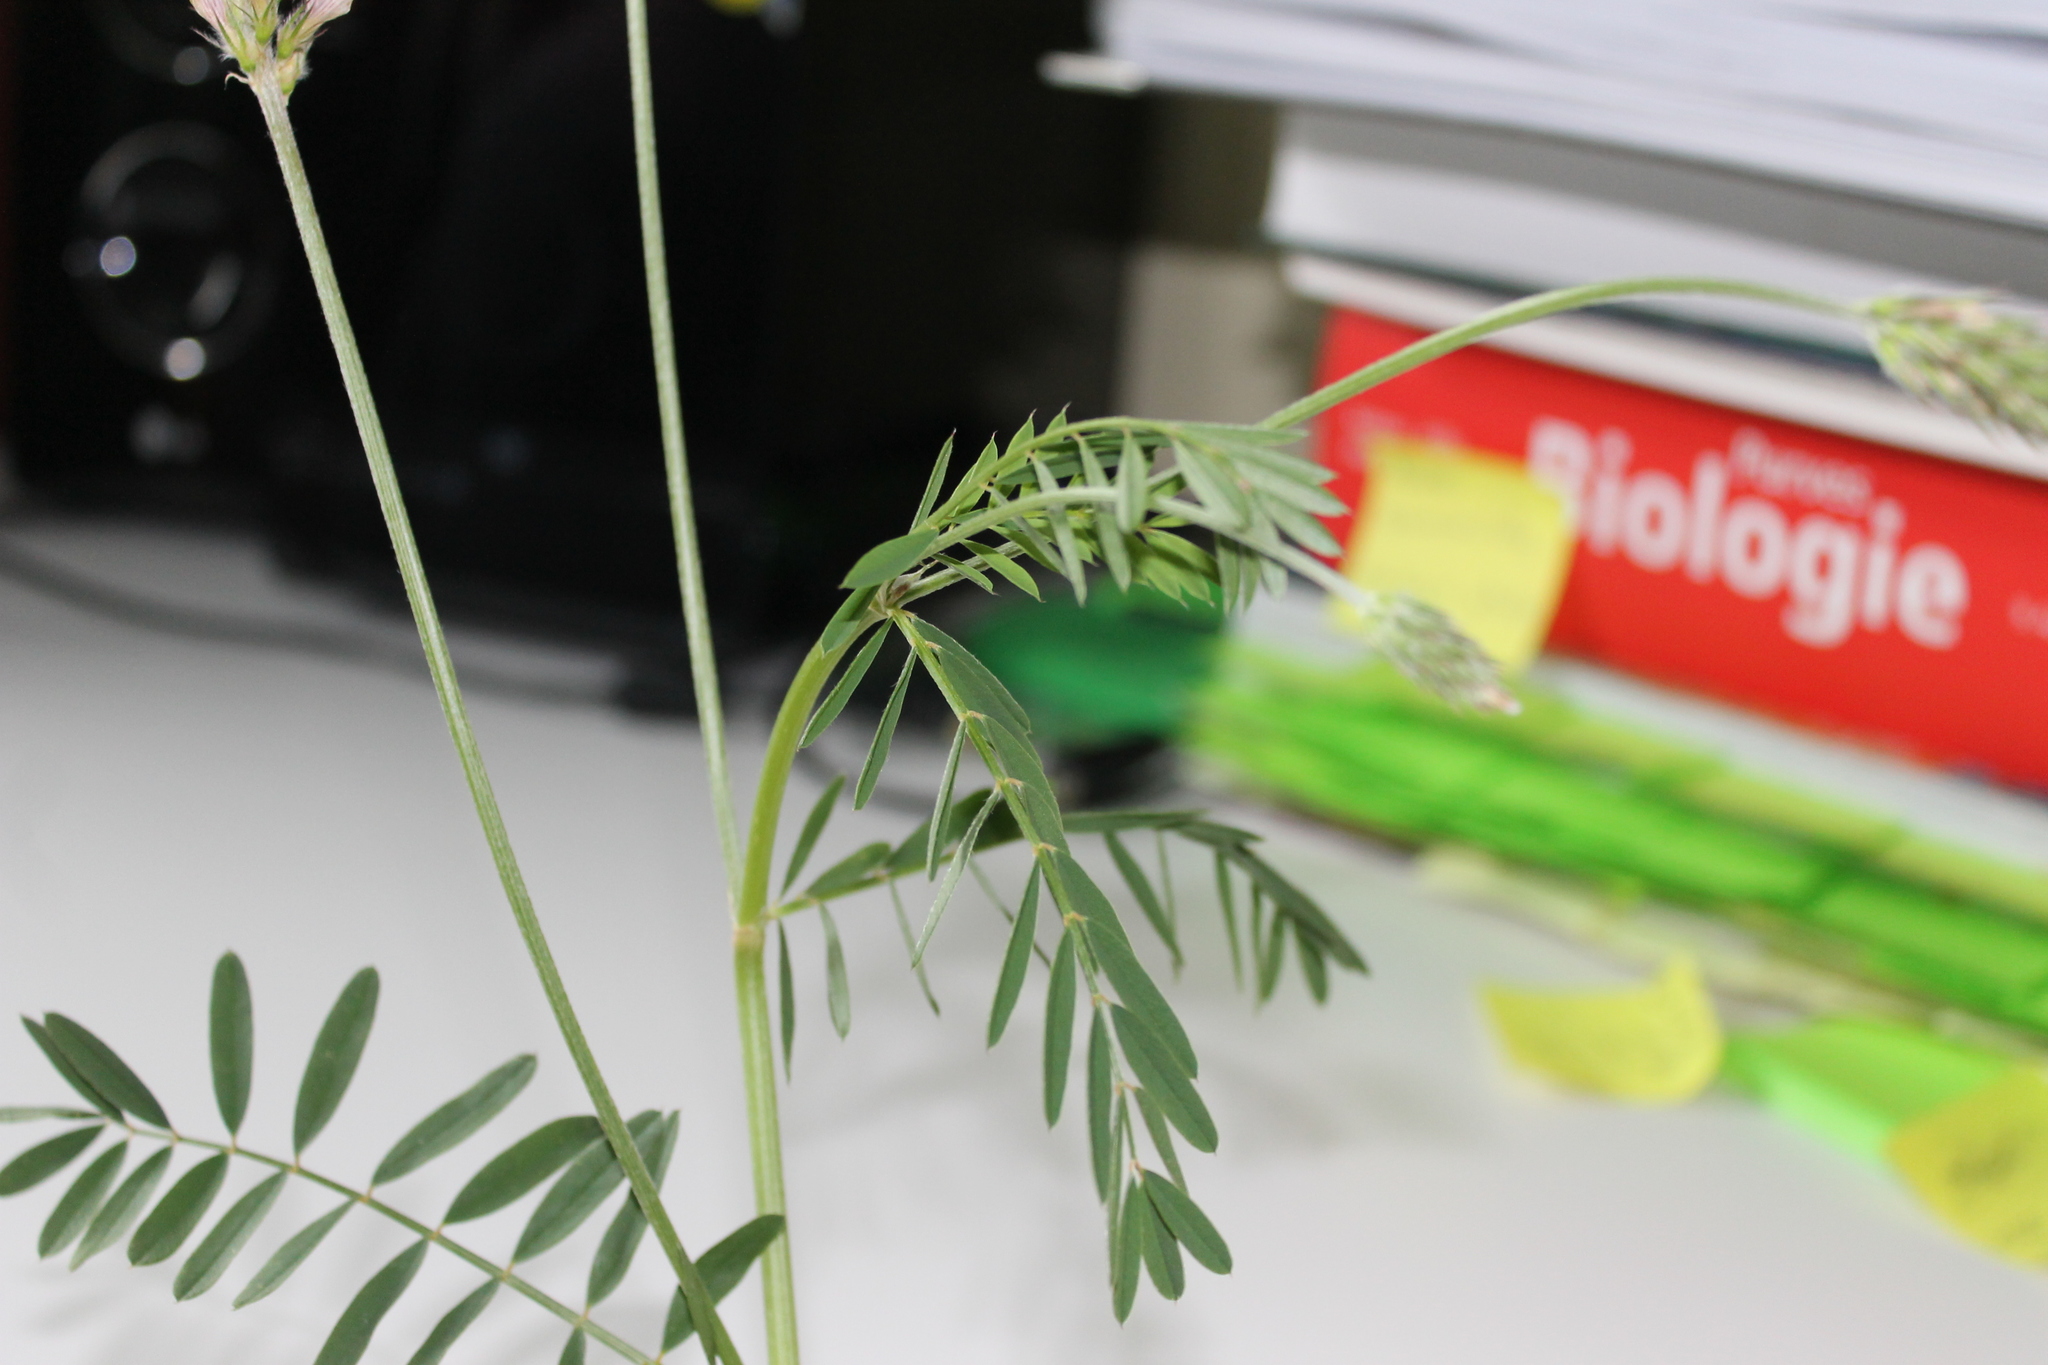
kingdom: Plantae
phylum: Tracheophyta
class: Magnoliopsida
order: Fabales
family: Fabaceae
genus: Onobrychis
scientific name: Onobrychis viciifolia
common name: Sainfoin
